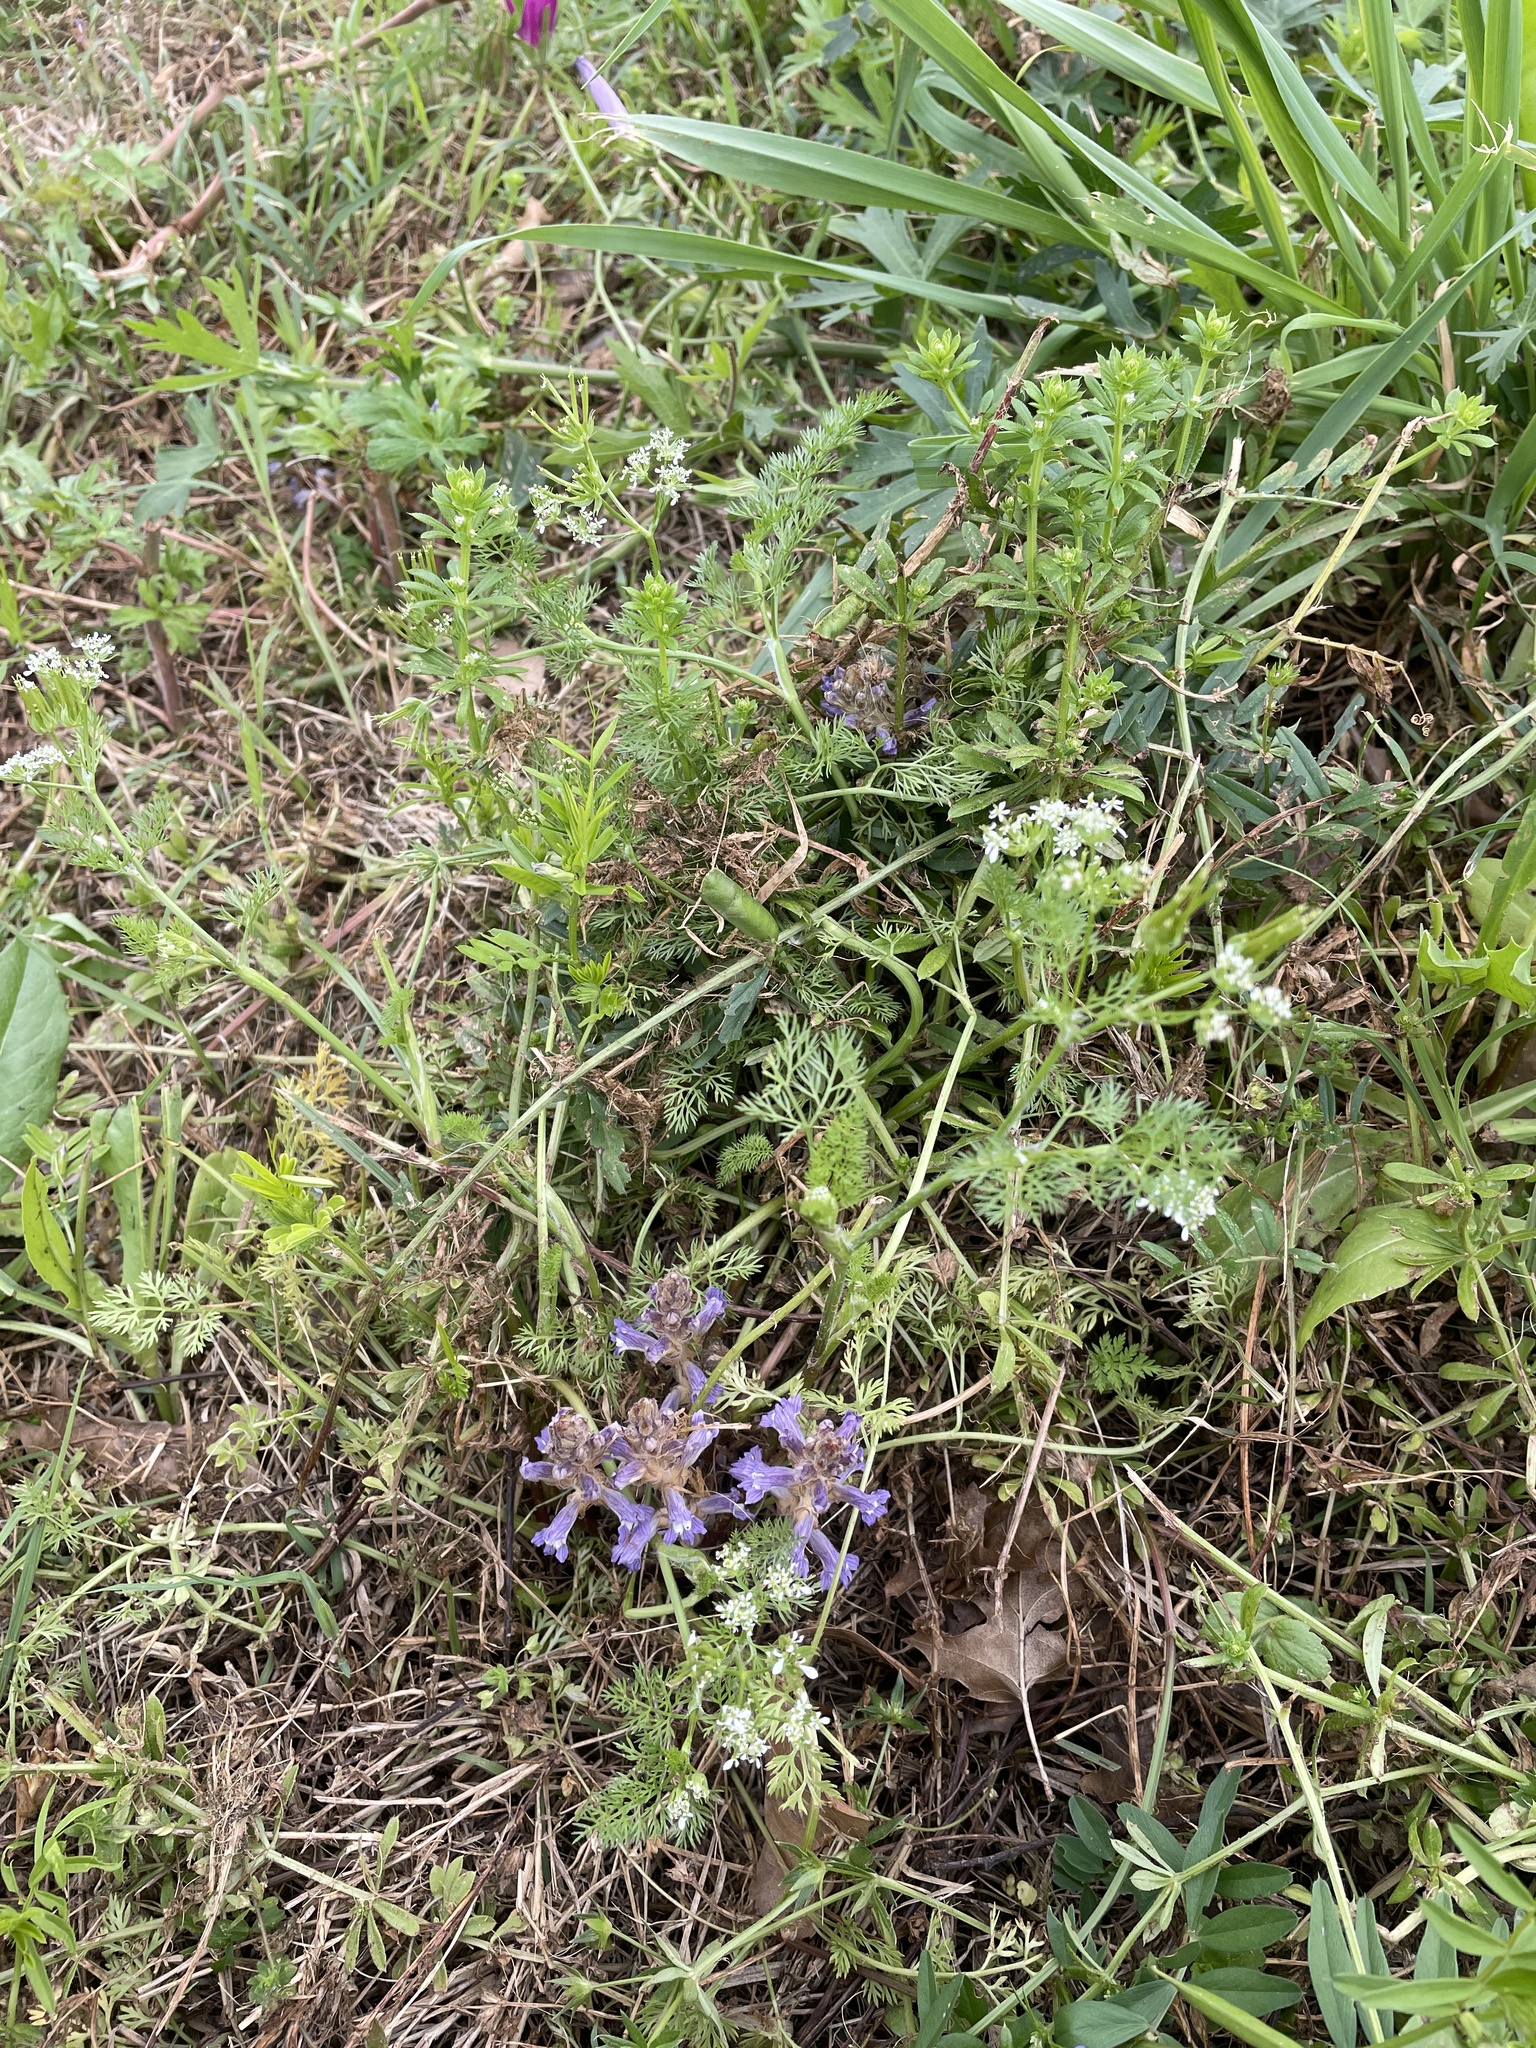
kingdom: Plantae
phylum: Tracheophyta
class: Magnoliopsida
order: Apiales
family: Apiaceae
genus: Scandix
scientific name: Scandix pecten-veneris
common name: Shepherd's-needle
